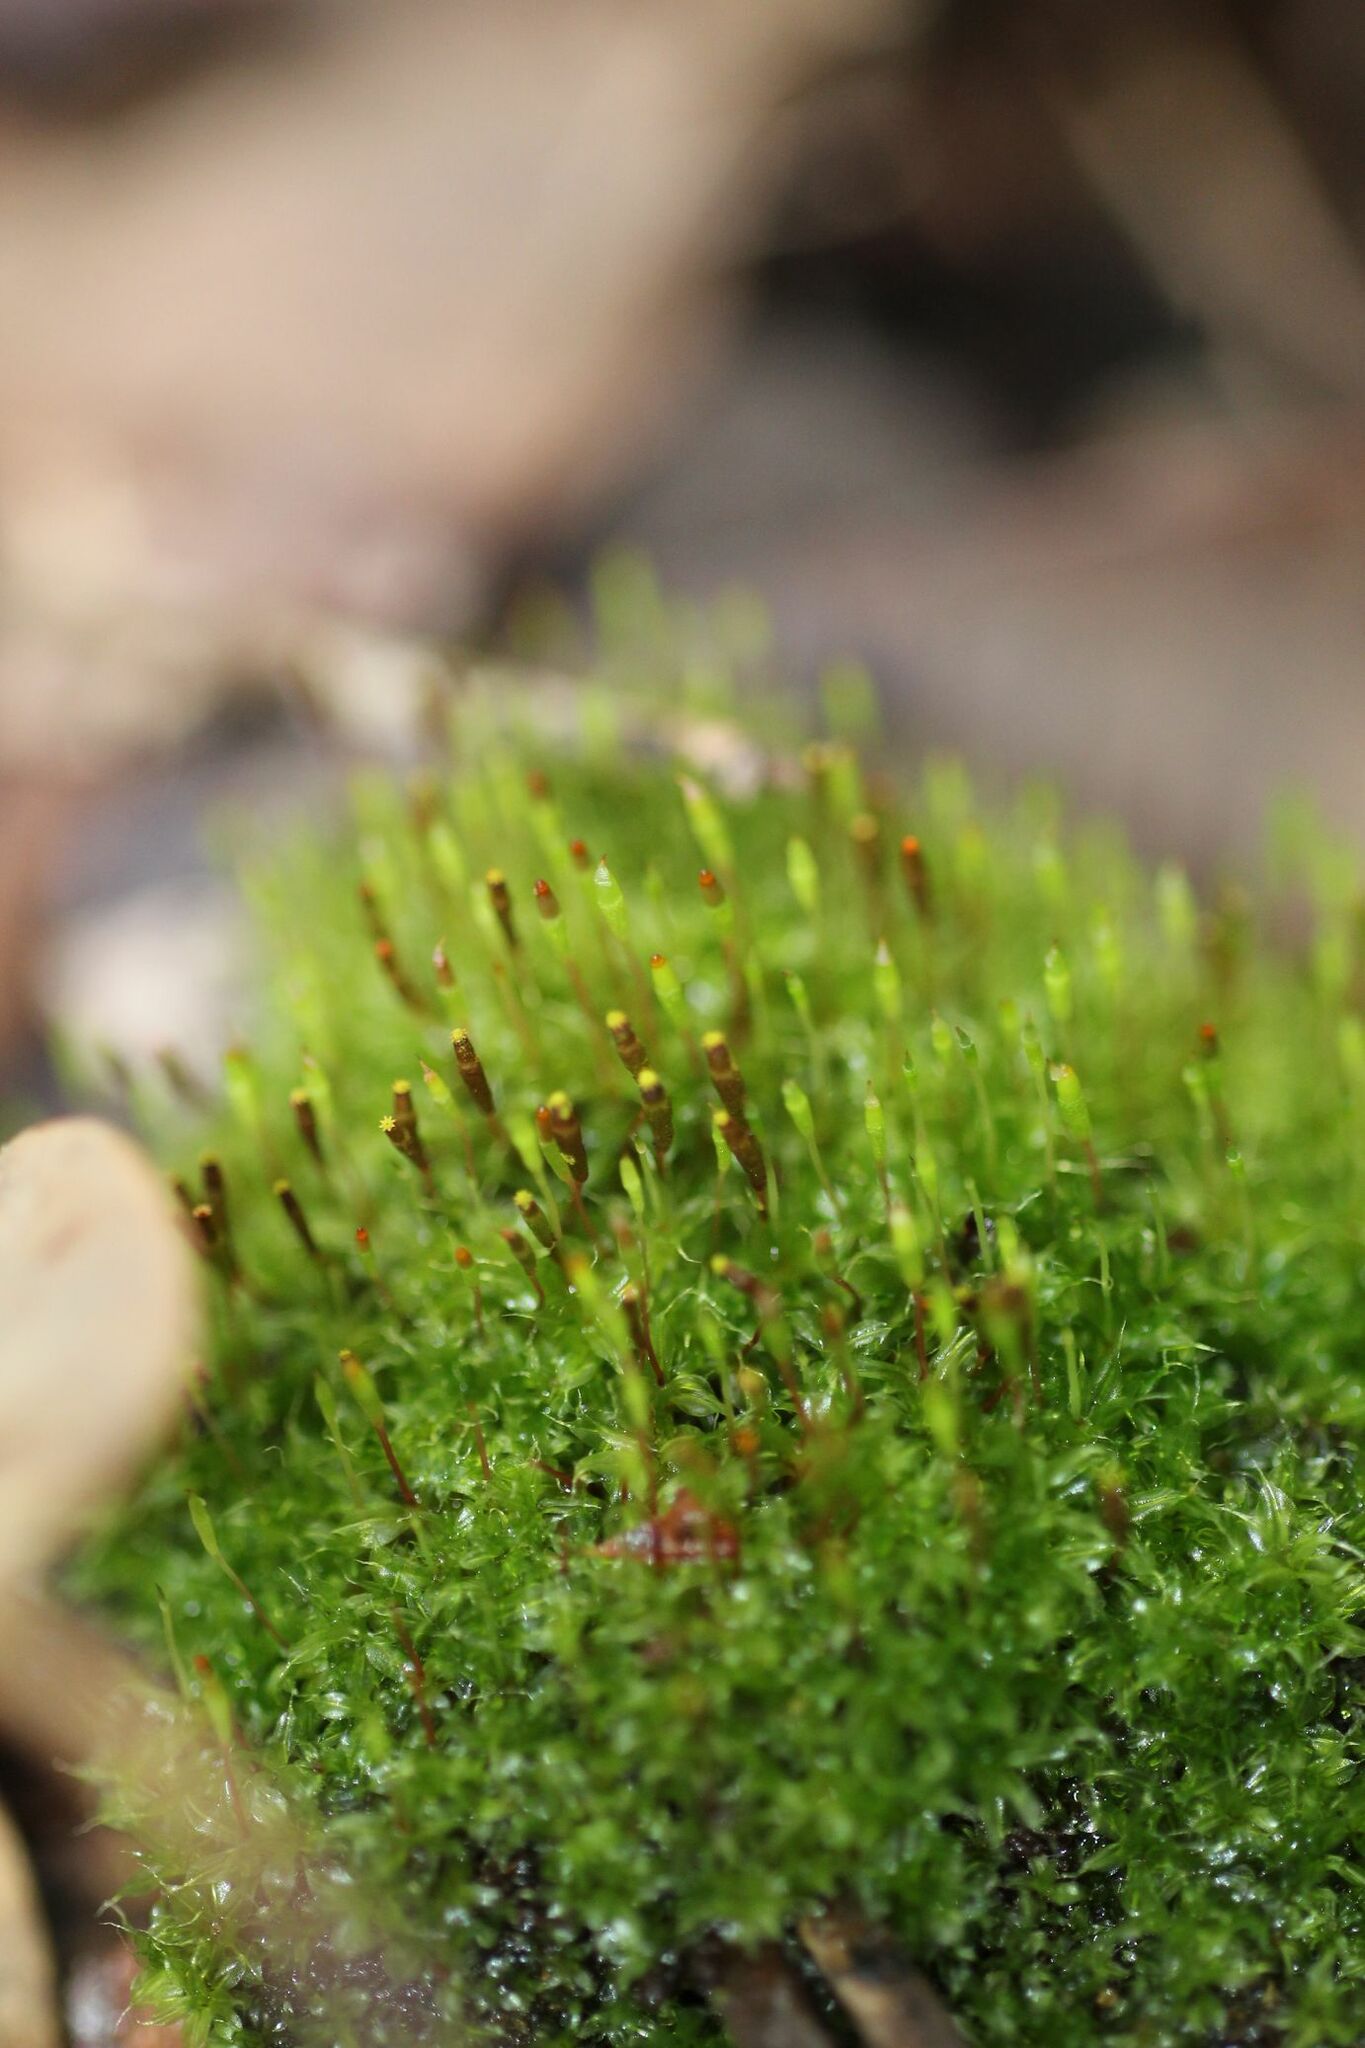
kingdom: Plantae
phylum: Bryophyta
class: Bryopsida
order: Splachnales
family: Splachnaceae
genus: Tayloria
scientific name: Tayloria octoblephara
